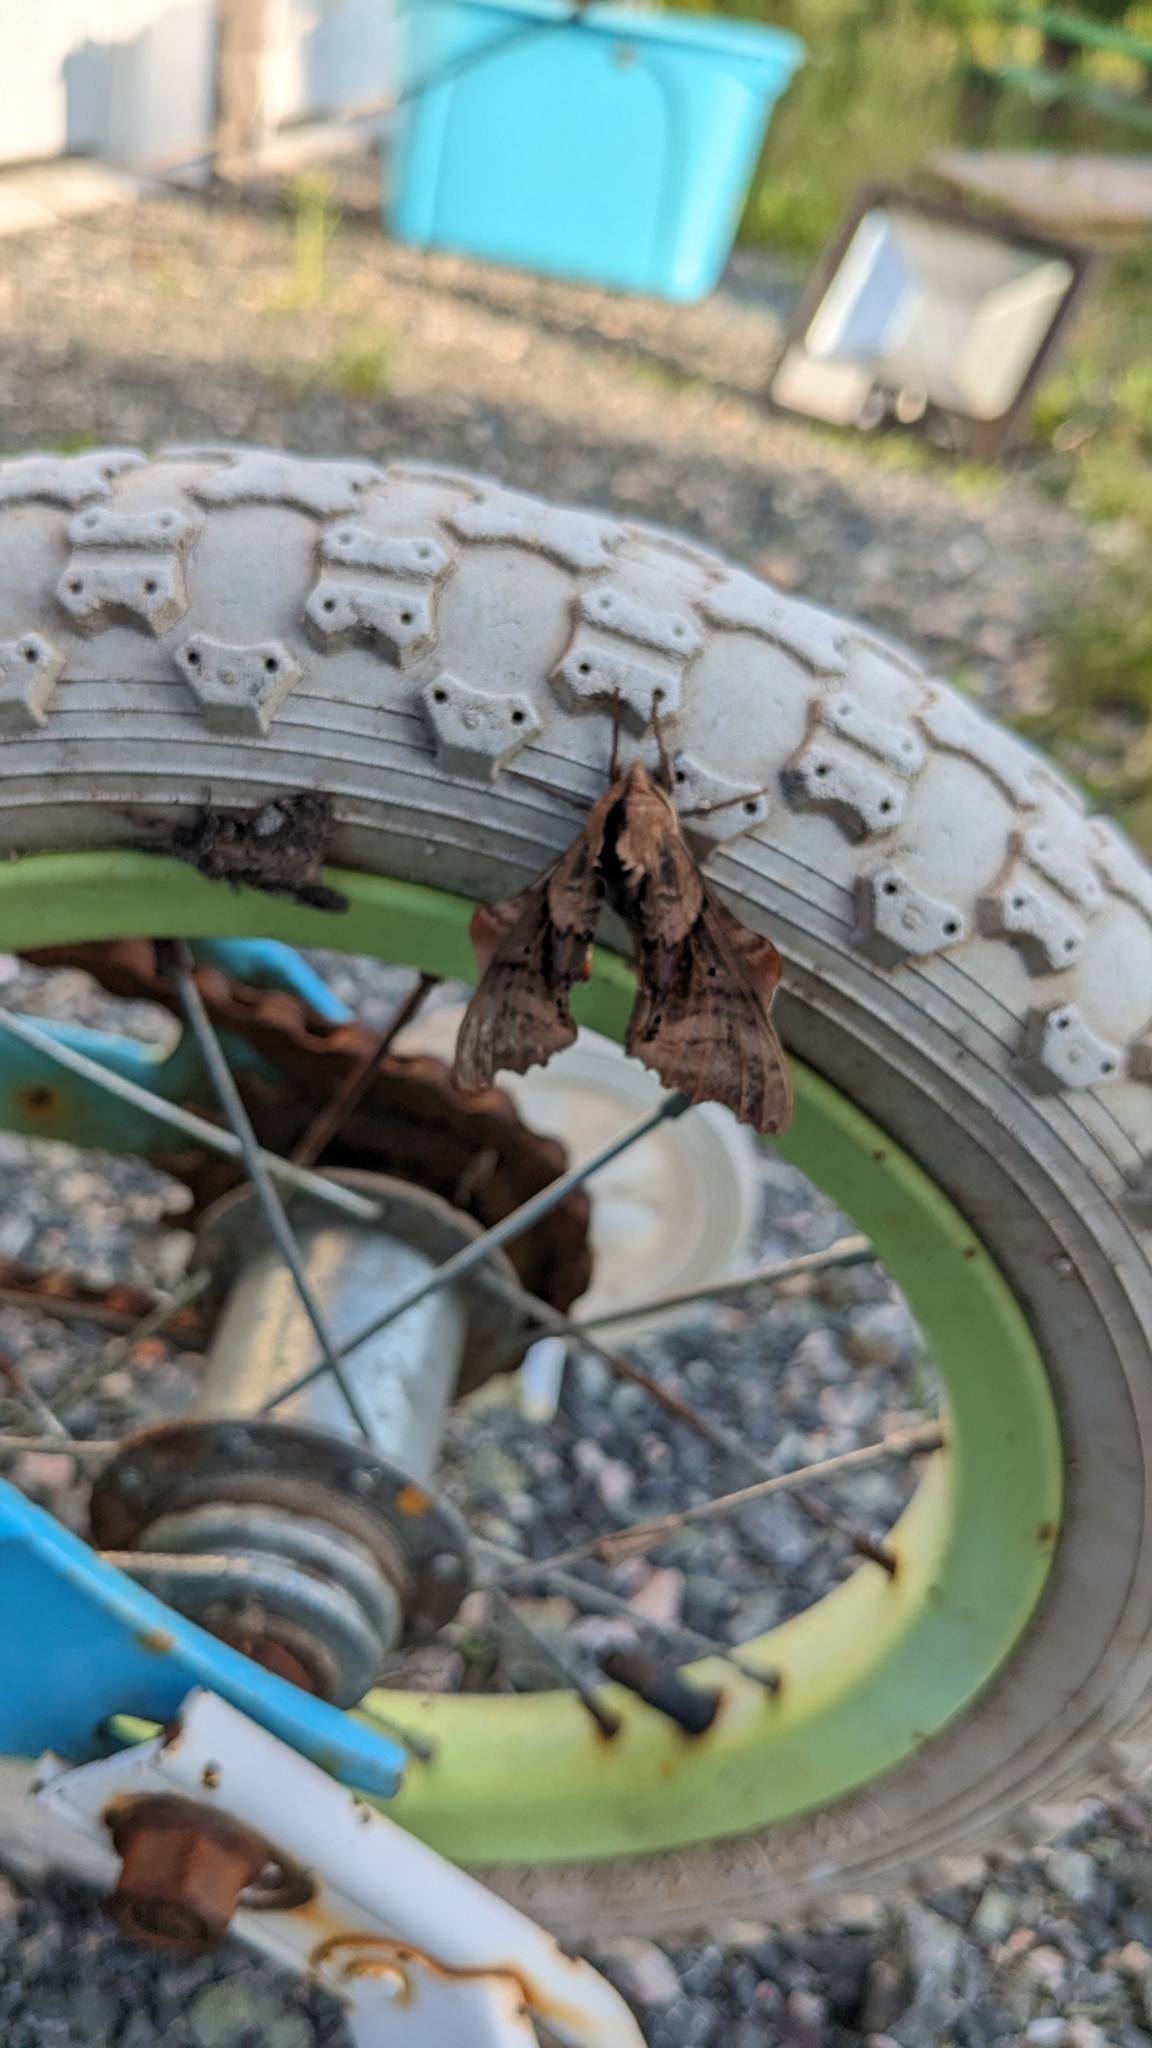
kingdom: Animalia
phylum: Arthropoda
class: Insecta
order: Lepidoptera
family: Sphingidae
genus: Paonias
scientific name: Paonias excaecata
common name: Blind-eyed sphinx
